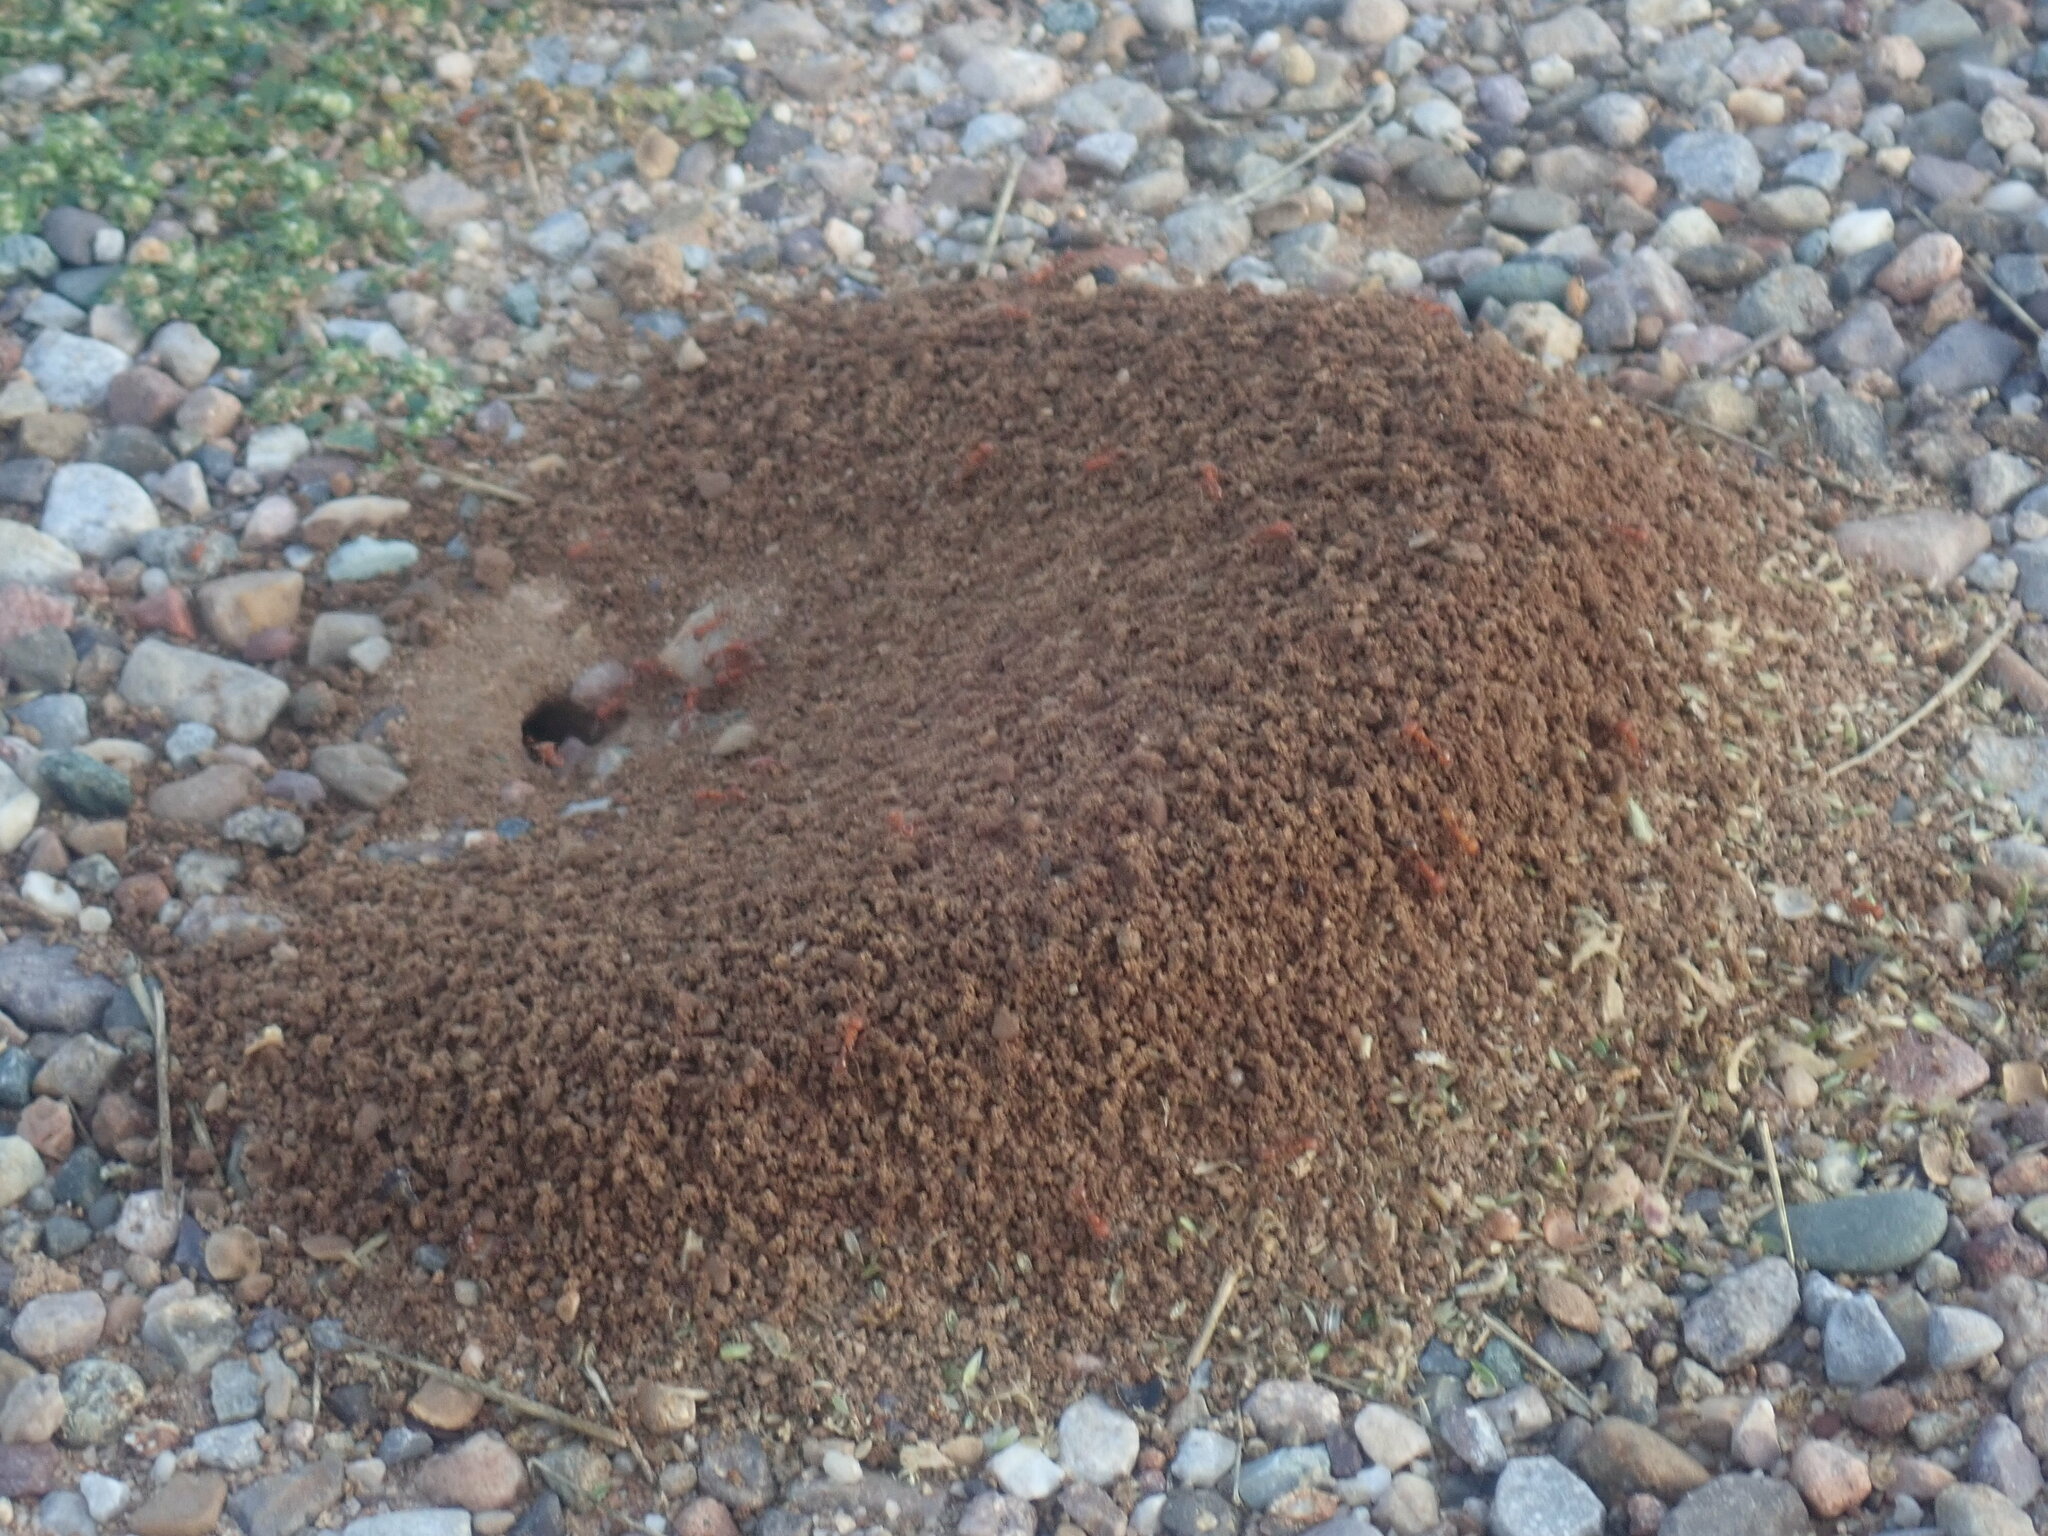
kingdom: Animalia
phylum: Arthropoda
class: Insecta
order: Hymenoptera
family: Formicidae
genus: Pogonomyrmex
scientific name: Pogonomyrmex maricopa
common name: Maricopa harvester ant
